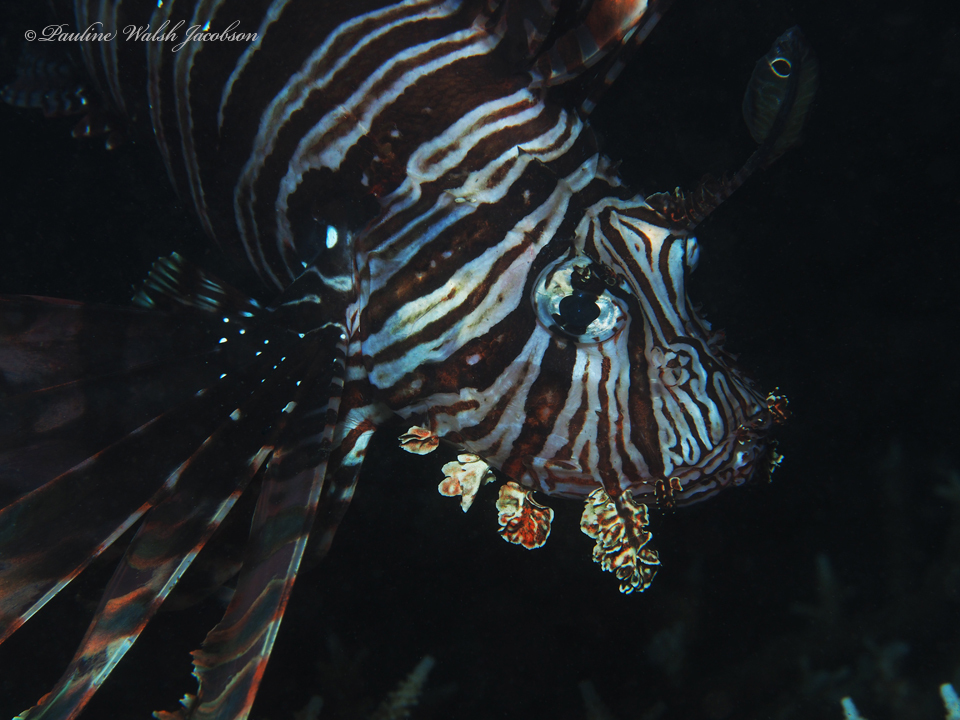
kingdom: Animalia
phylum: Chordata
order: Scorpaeniformes
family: Scorpaenidae
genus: Pterois
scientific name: Pterois volitans
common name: Lionfish
